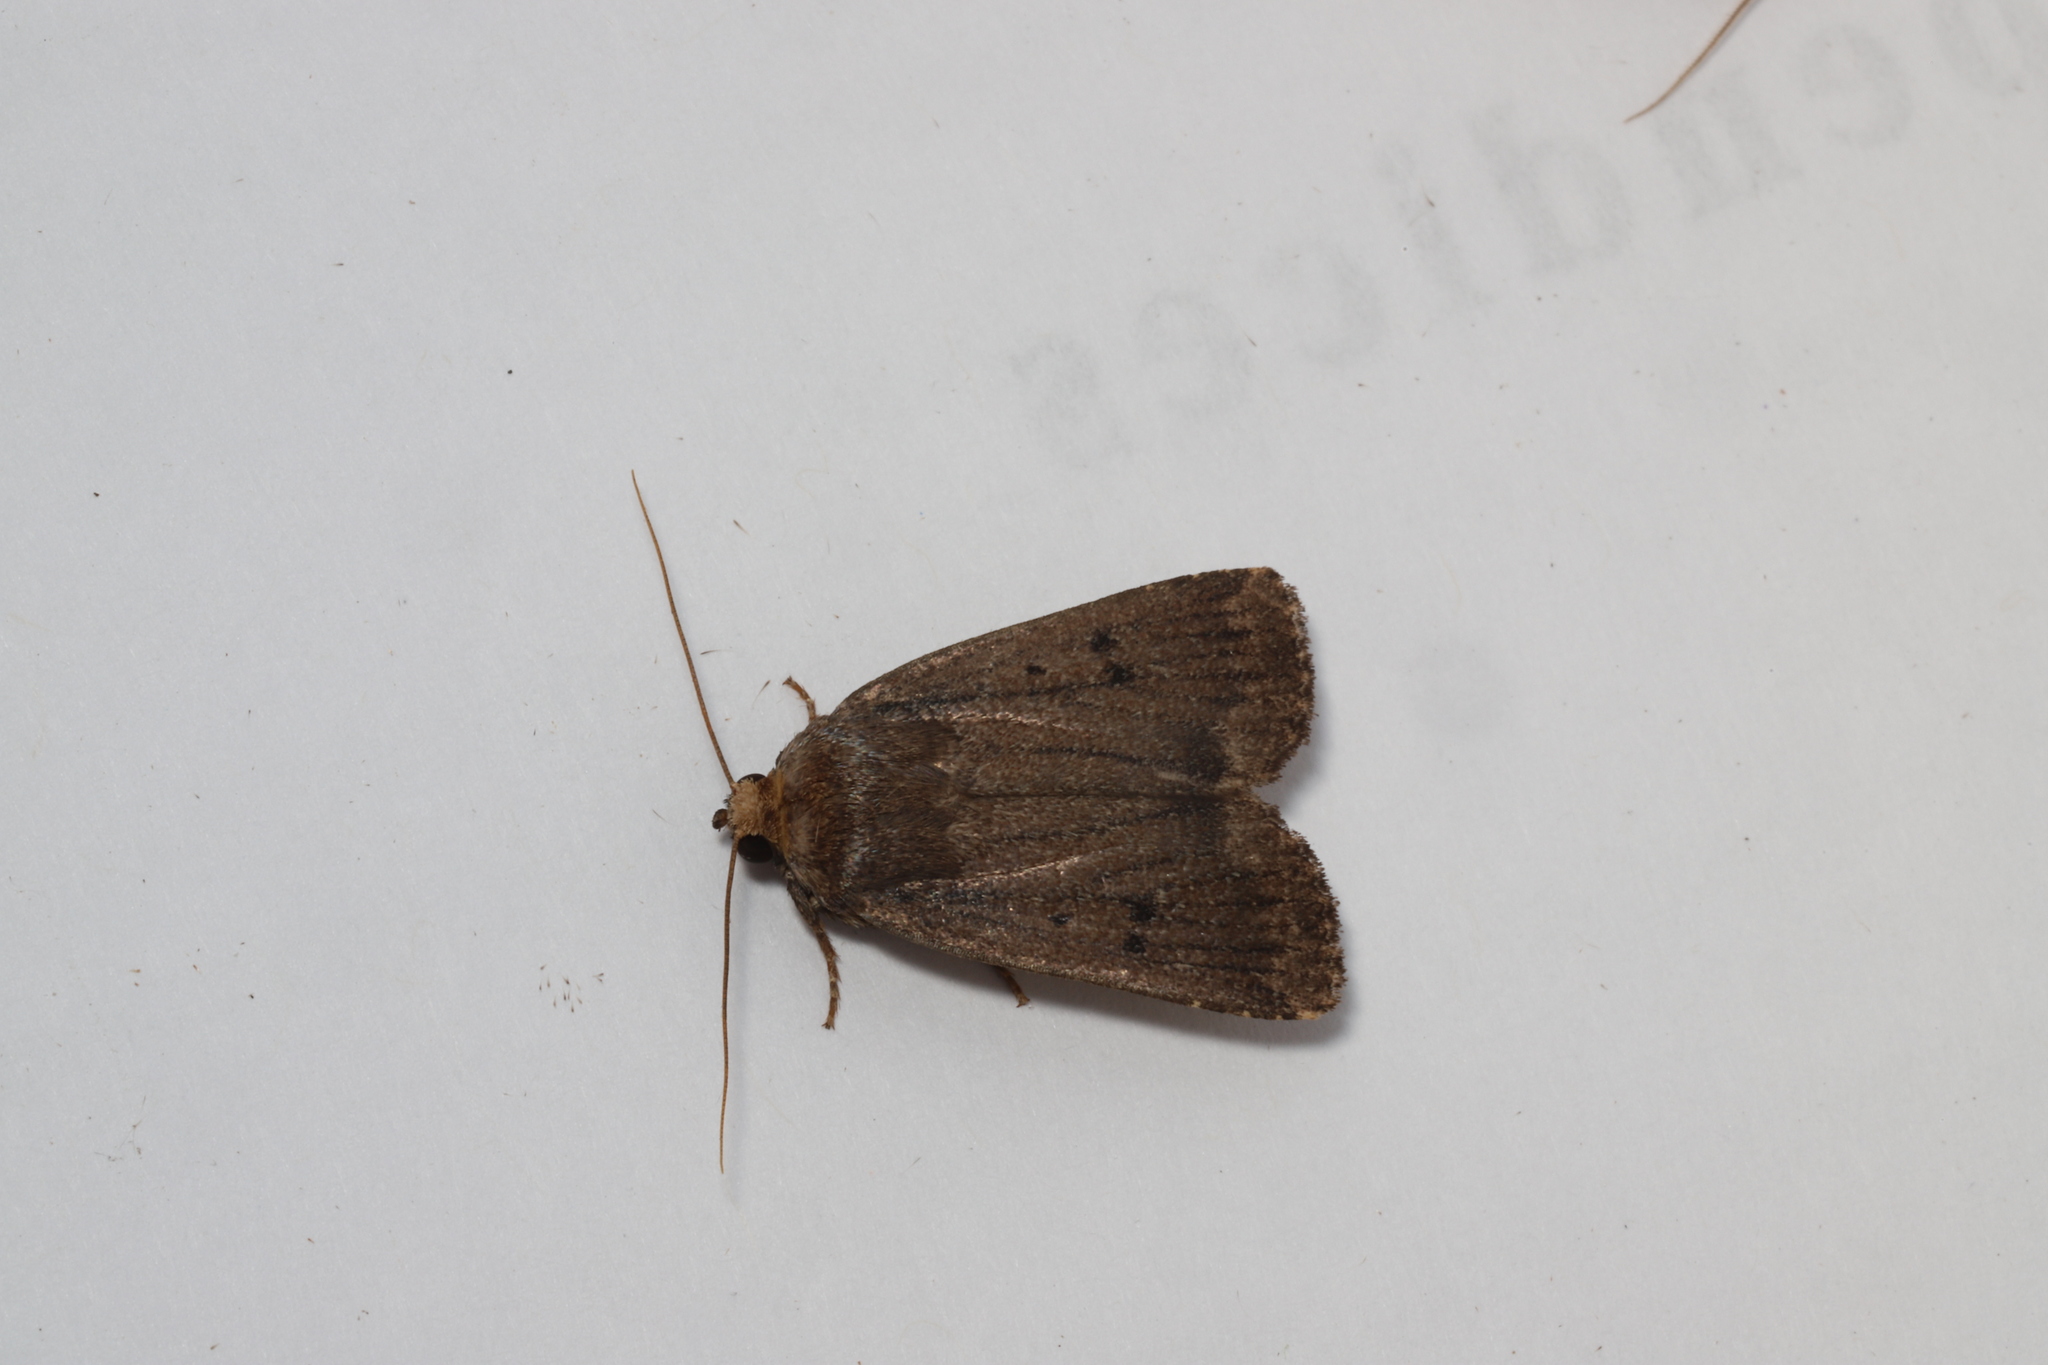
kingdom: Animalia
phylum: Arthropoda
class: Insecta
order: Lepidoptera
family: Noctuidae
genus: Amphipyra
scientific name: Amphipyra tragopoginis
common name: Mouse moth
